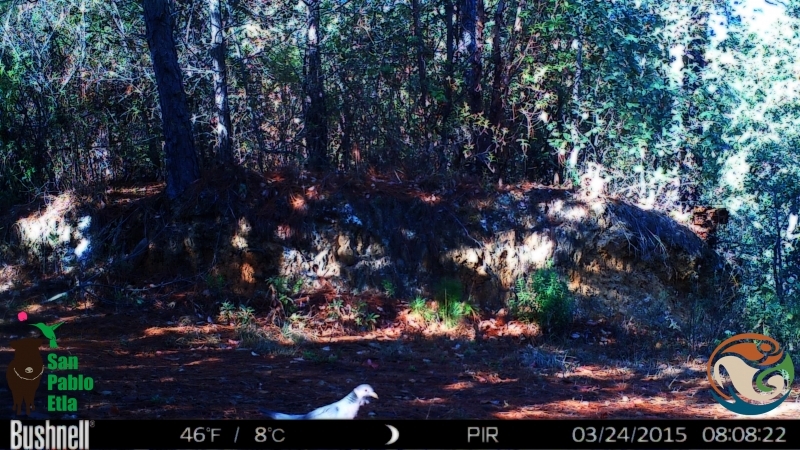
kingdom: Animalia
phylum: Chordata
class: Aves
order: Columbiformes
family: Columbidae
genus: Patagioenas
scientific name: Patagioenas fasciata
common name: Band-tailed pigeon
